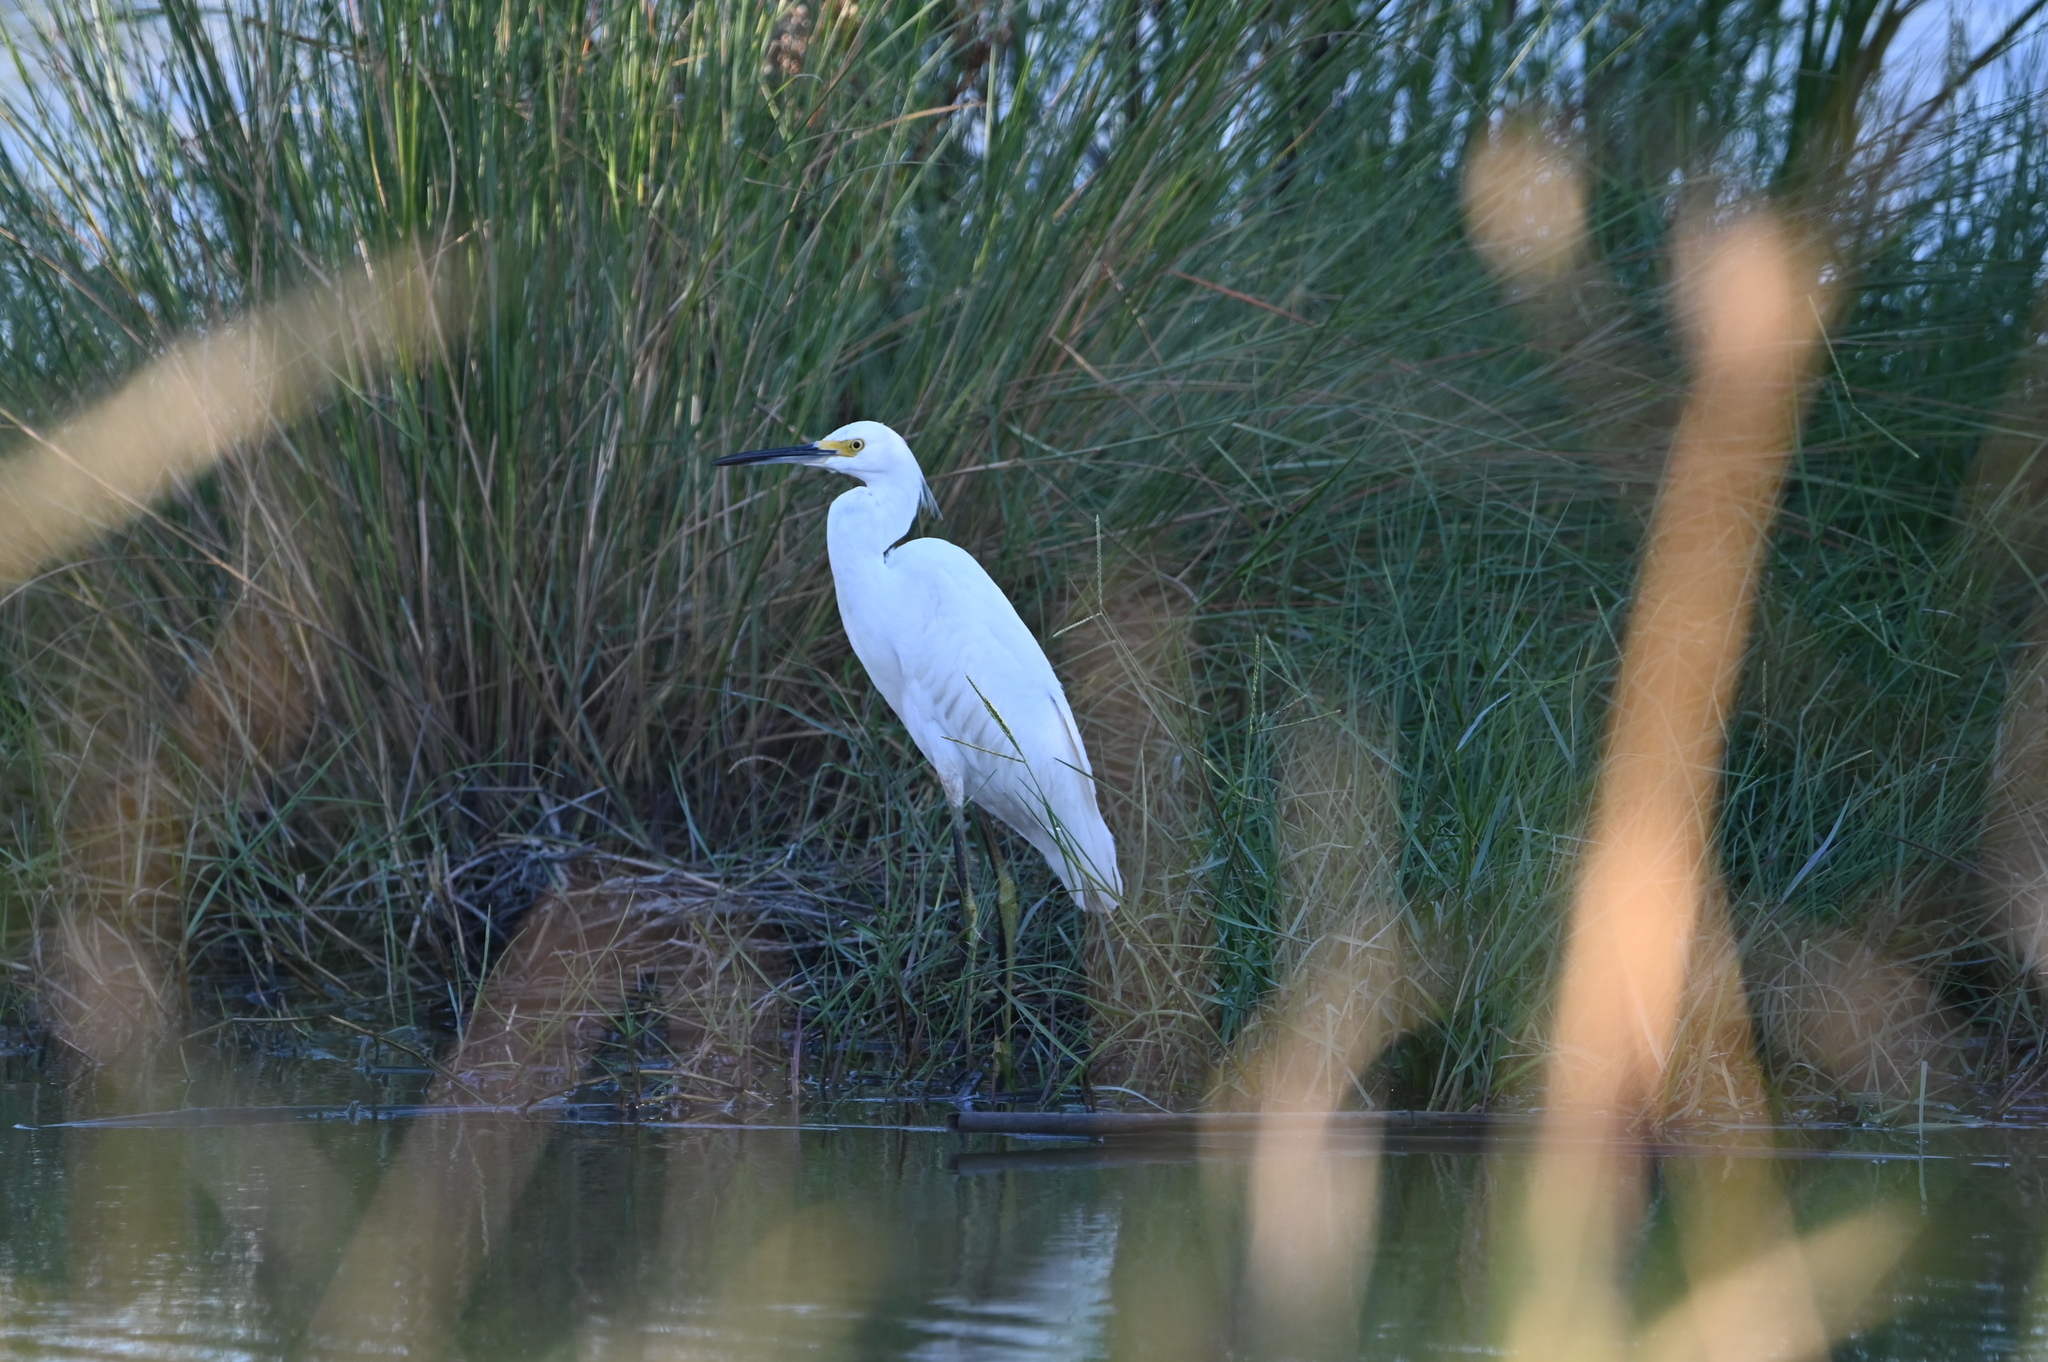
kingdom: Animalia
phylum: Chordata
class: Aves
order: Pelecaniformes
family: Ardeidae
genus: Egretta
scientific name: Egretta thula
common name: Snowy egret
